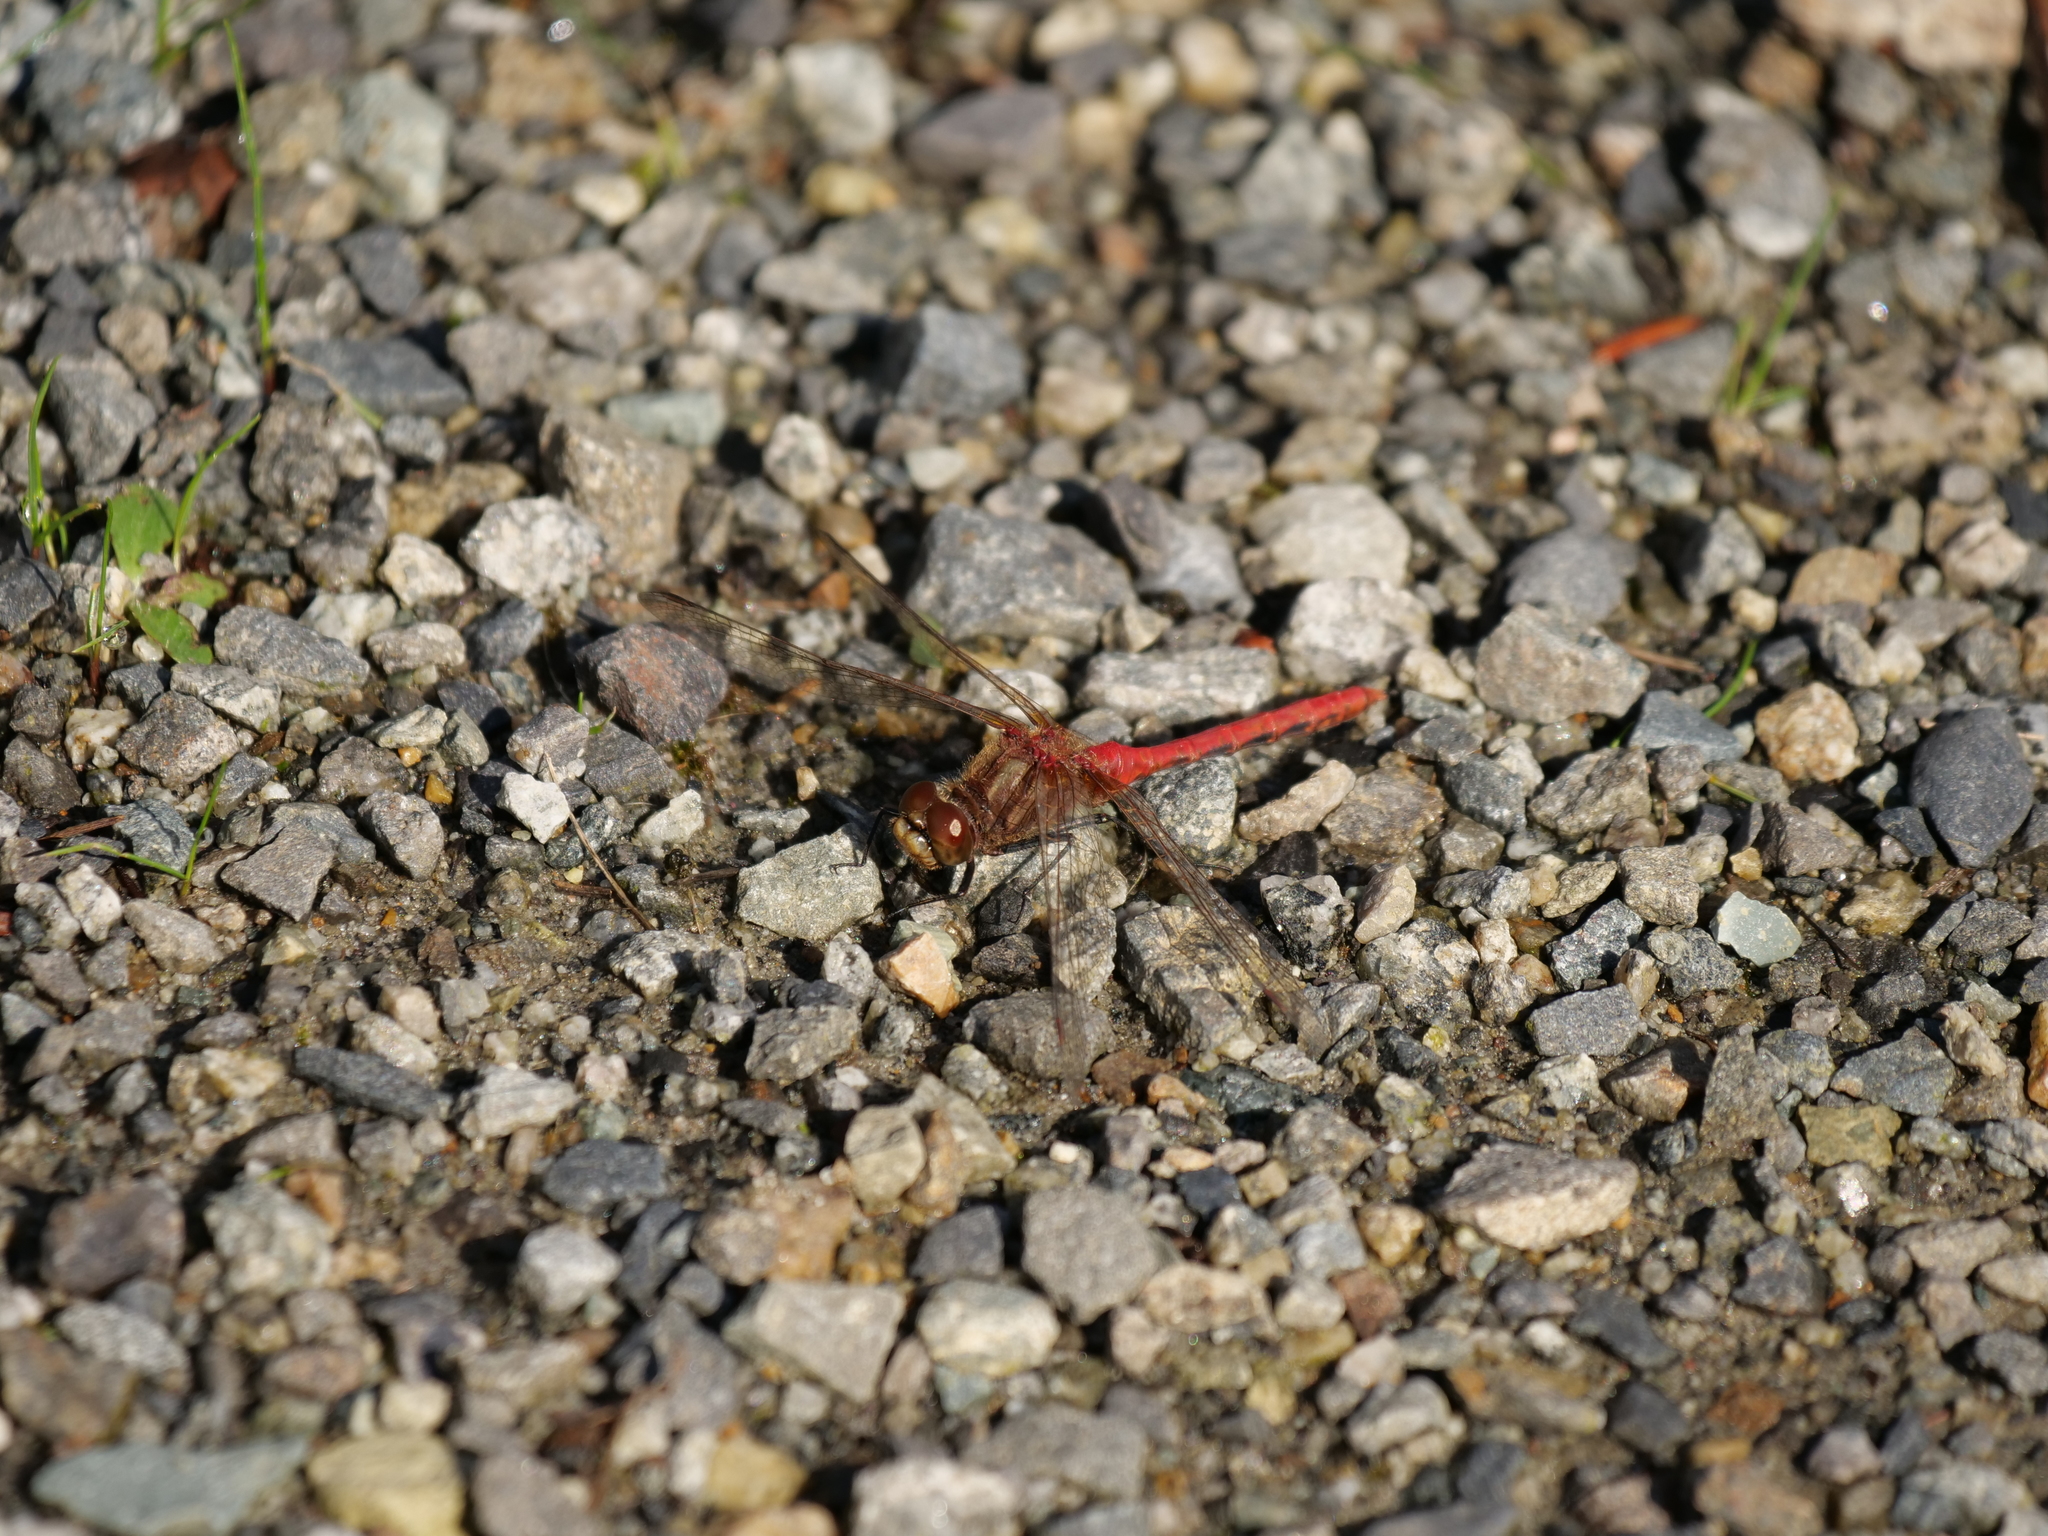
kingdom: Animalia
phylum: Arthropoda
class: Insecta
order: Odonata
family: Libellulidae
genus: Sympetrum
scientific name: Sympetrum pallipes
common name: Striped meadowhawk
